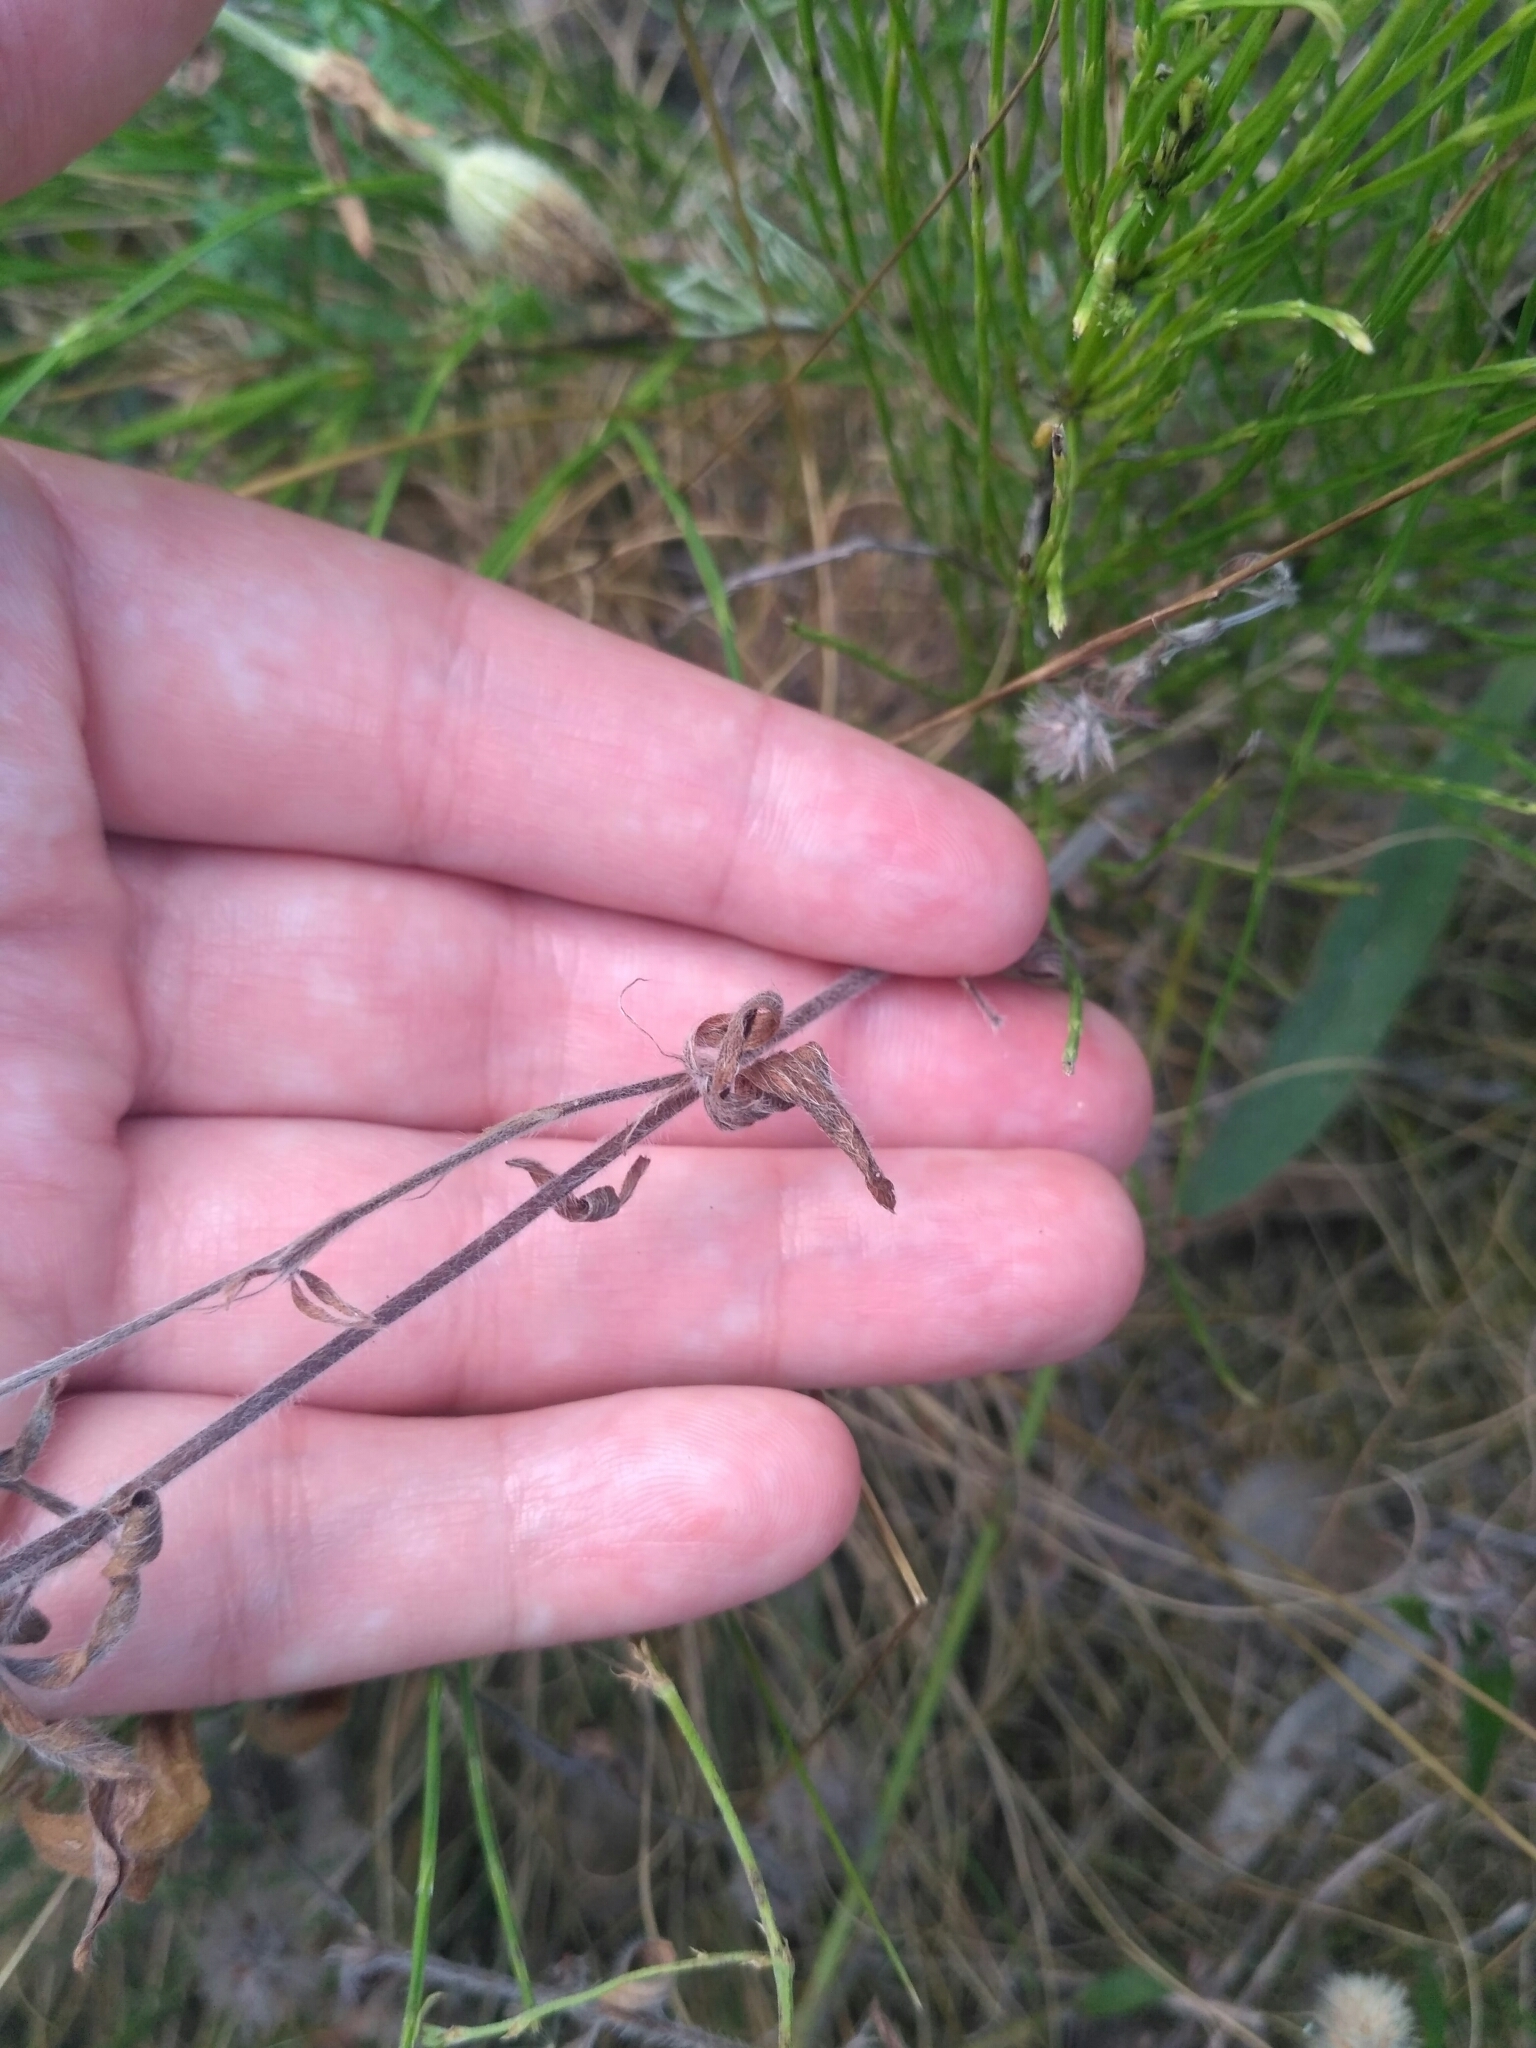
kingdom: Plantae
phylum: Tracheophyta
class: Magnoliopsida
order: Fabales
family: Fabaceae
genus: Trifolium
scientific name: Trifolium arvense
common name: Hare's-foot clover
